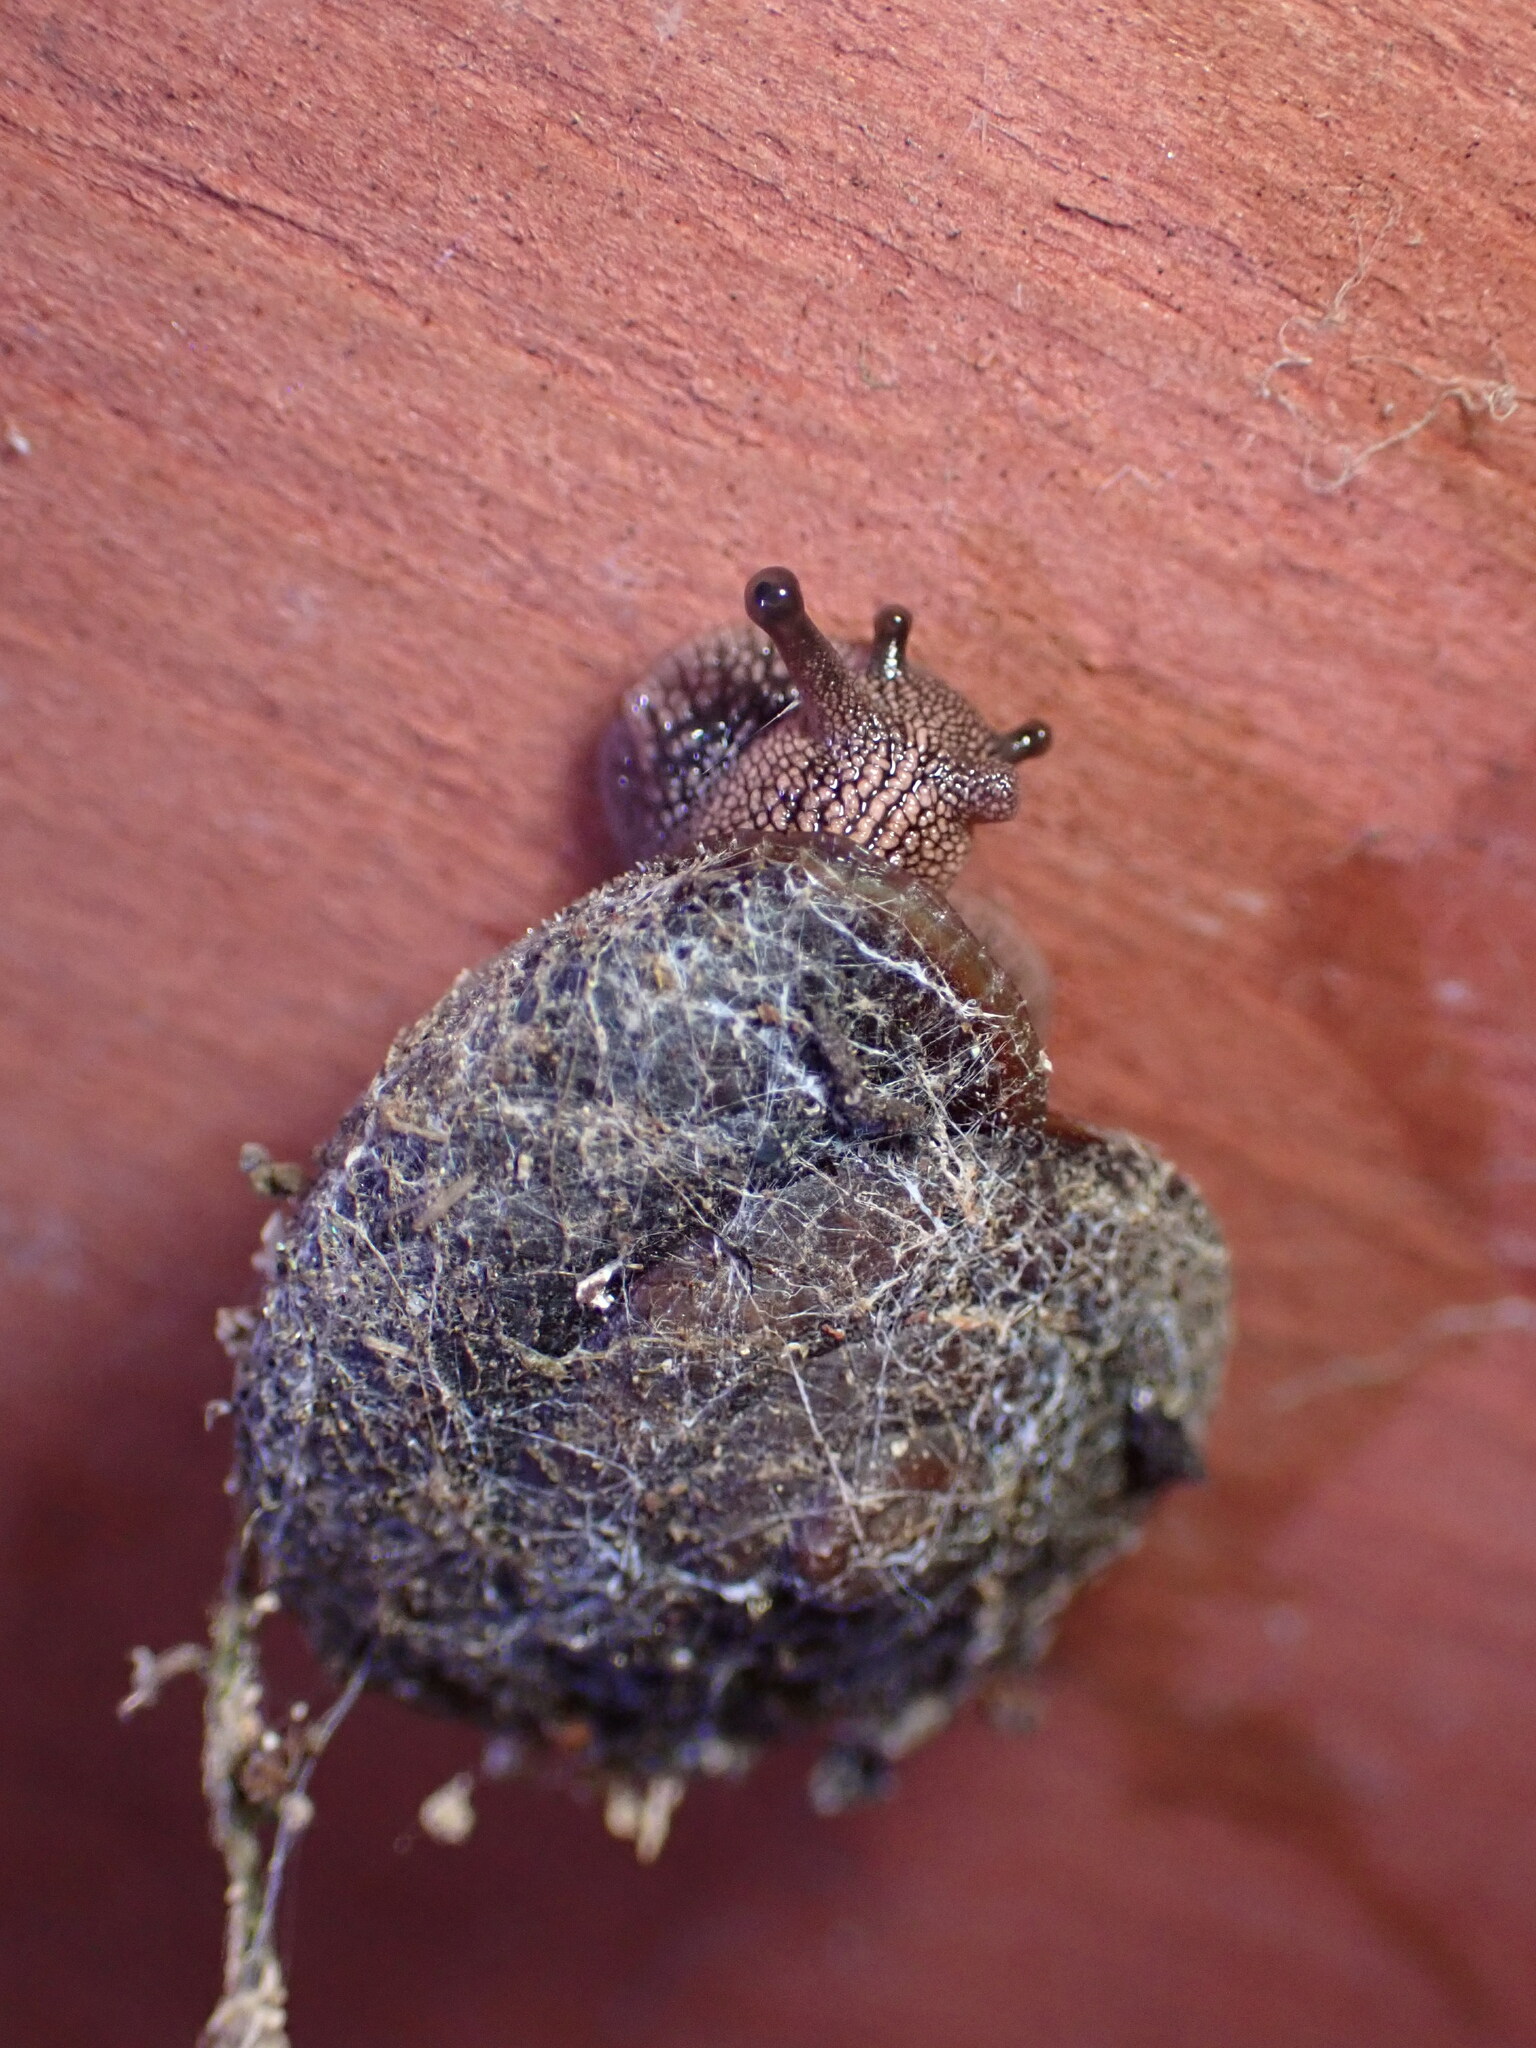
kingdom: Animalia
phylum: Mollusca
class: Gastropoda
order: Stylommatophora
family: Xanthonychidae
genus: Monadenia
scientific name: Monadenia infumata
